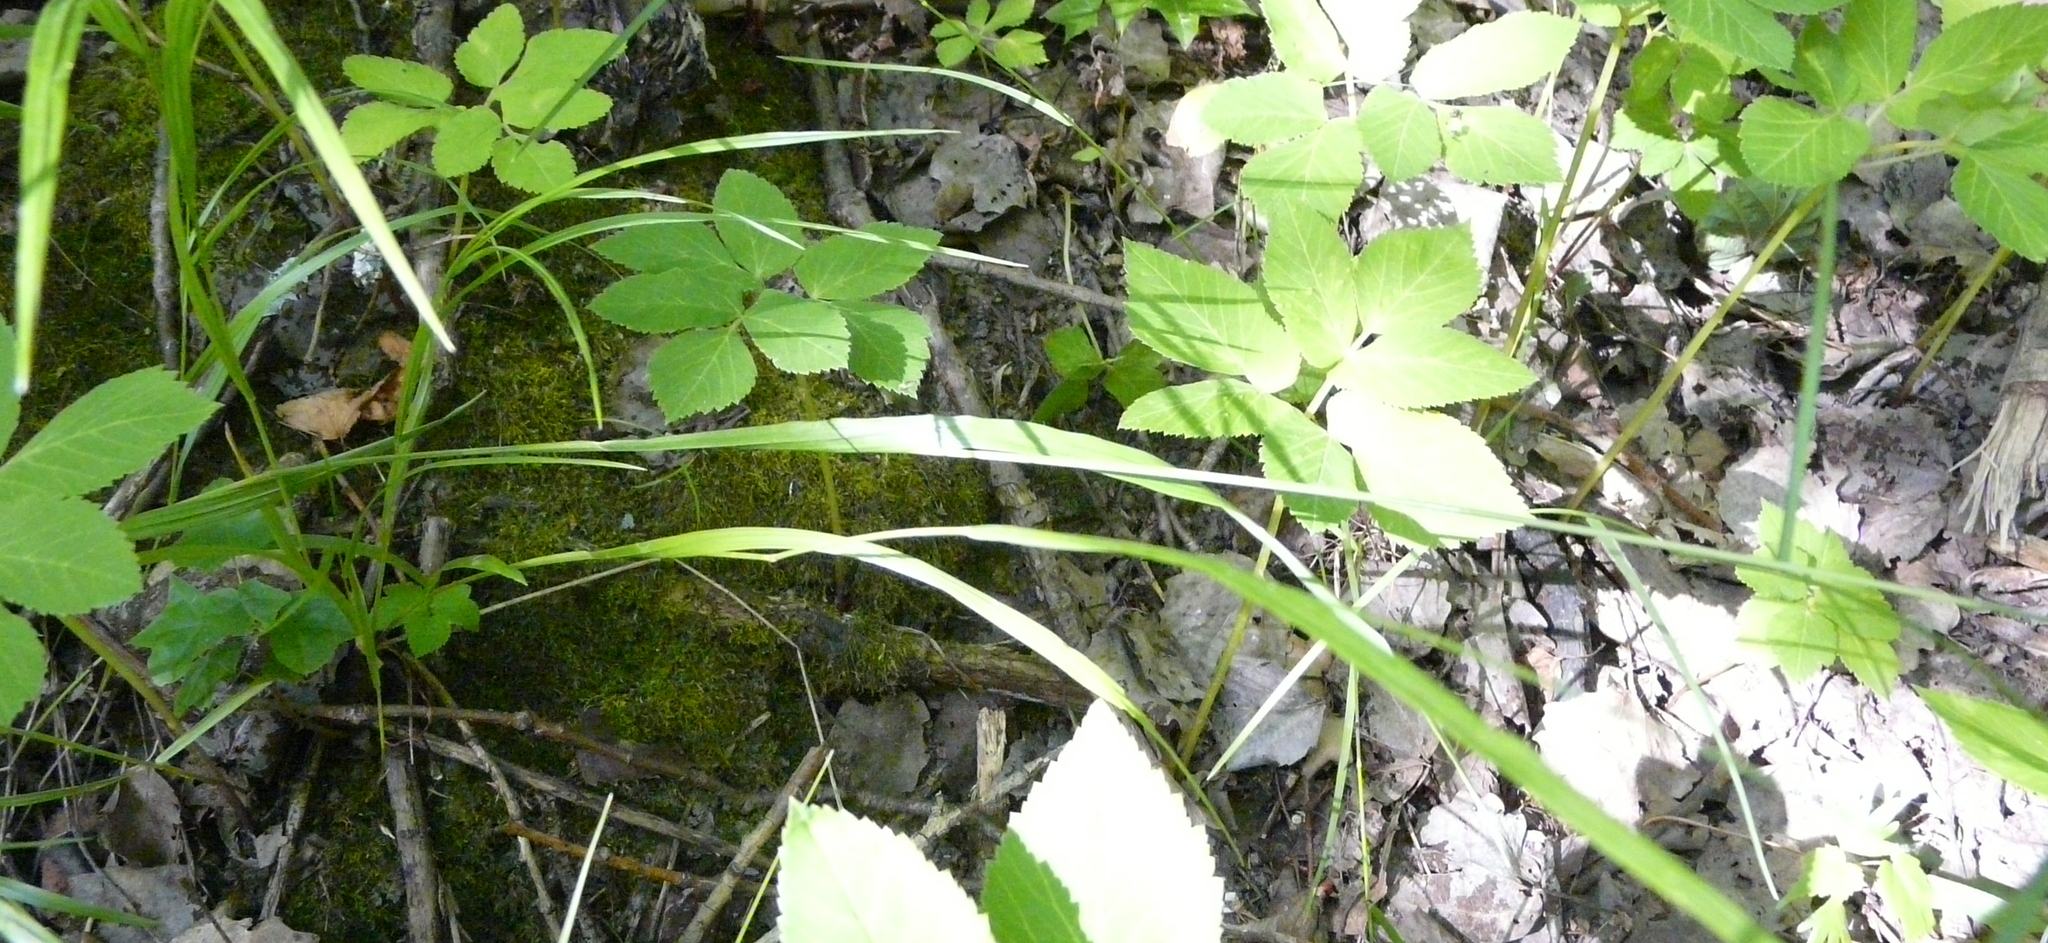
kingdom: Plantae
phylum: Tracheophyta
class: Liliopsida
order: Poales
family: Poaceae
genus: Melica
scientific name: Melica nutans
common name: Mountain melick
